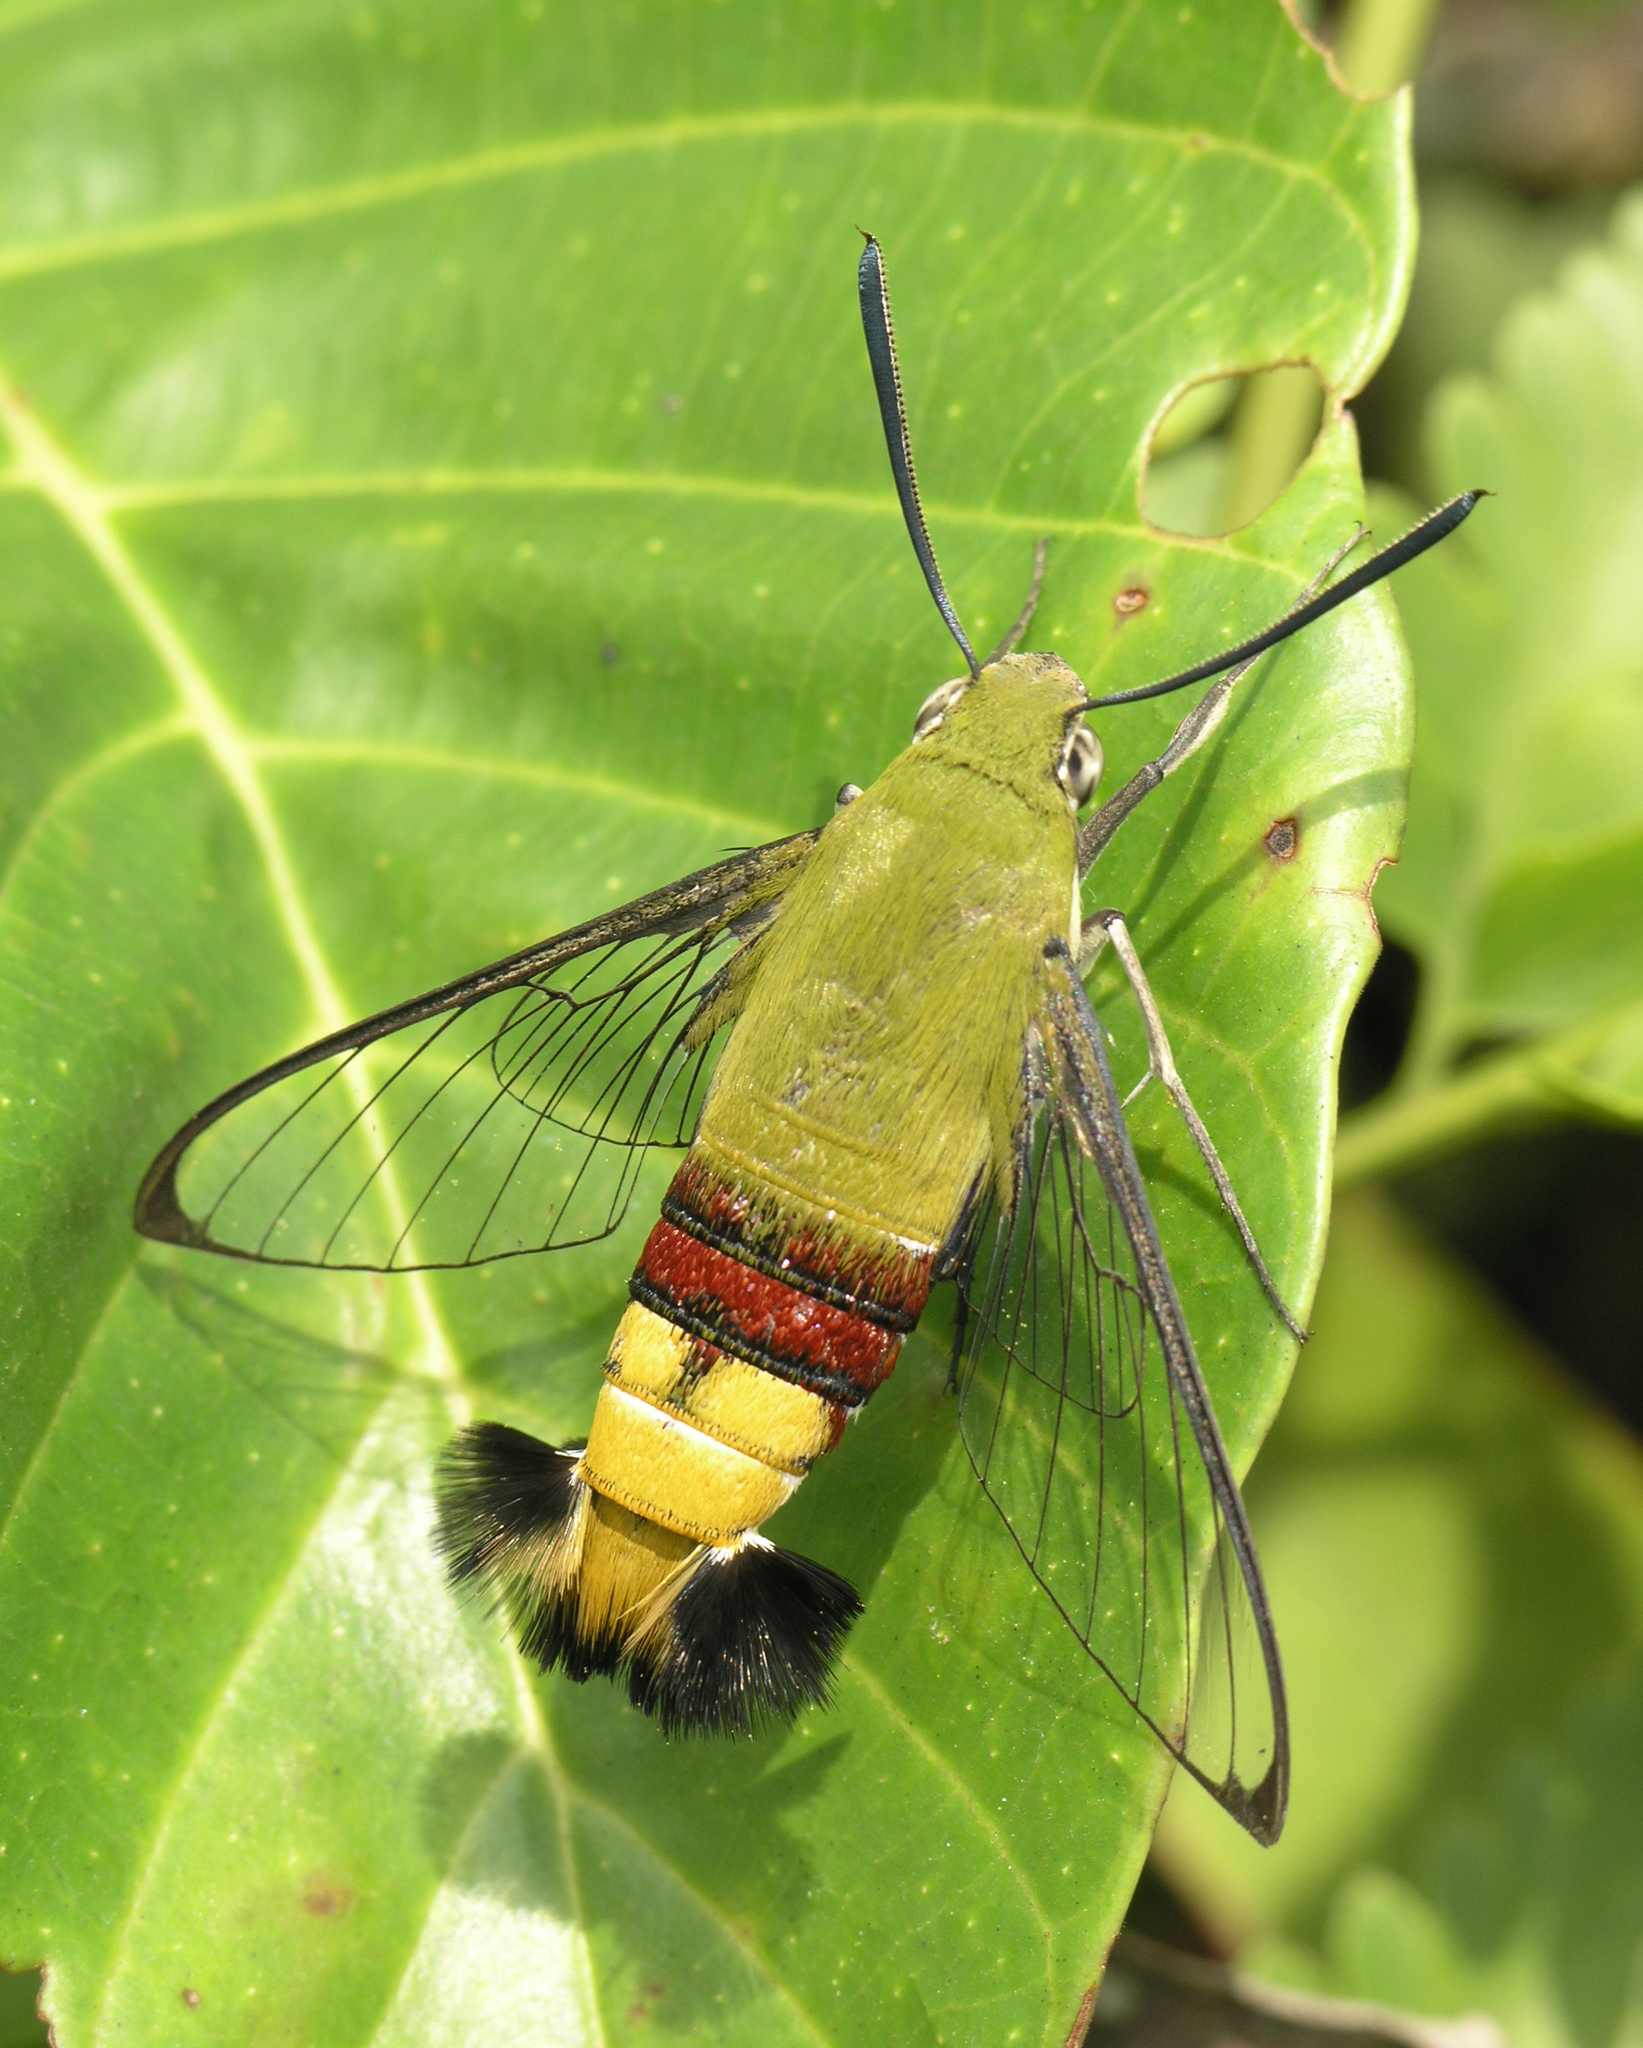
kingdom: Animalia
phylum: Arthropoda
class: Insecta
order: Lepidoptera
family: Sphingidae
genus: Cephonodes
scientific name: Cephonodes hylas
